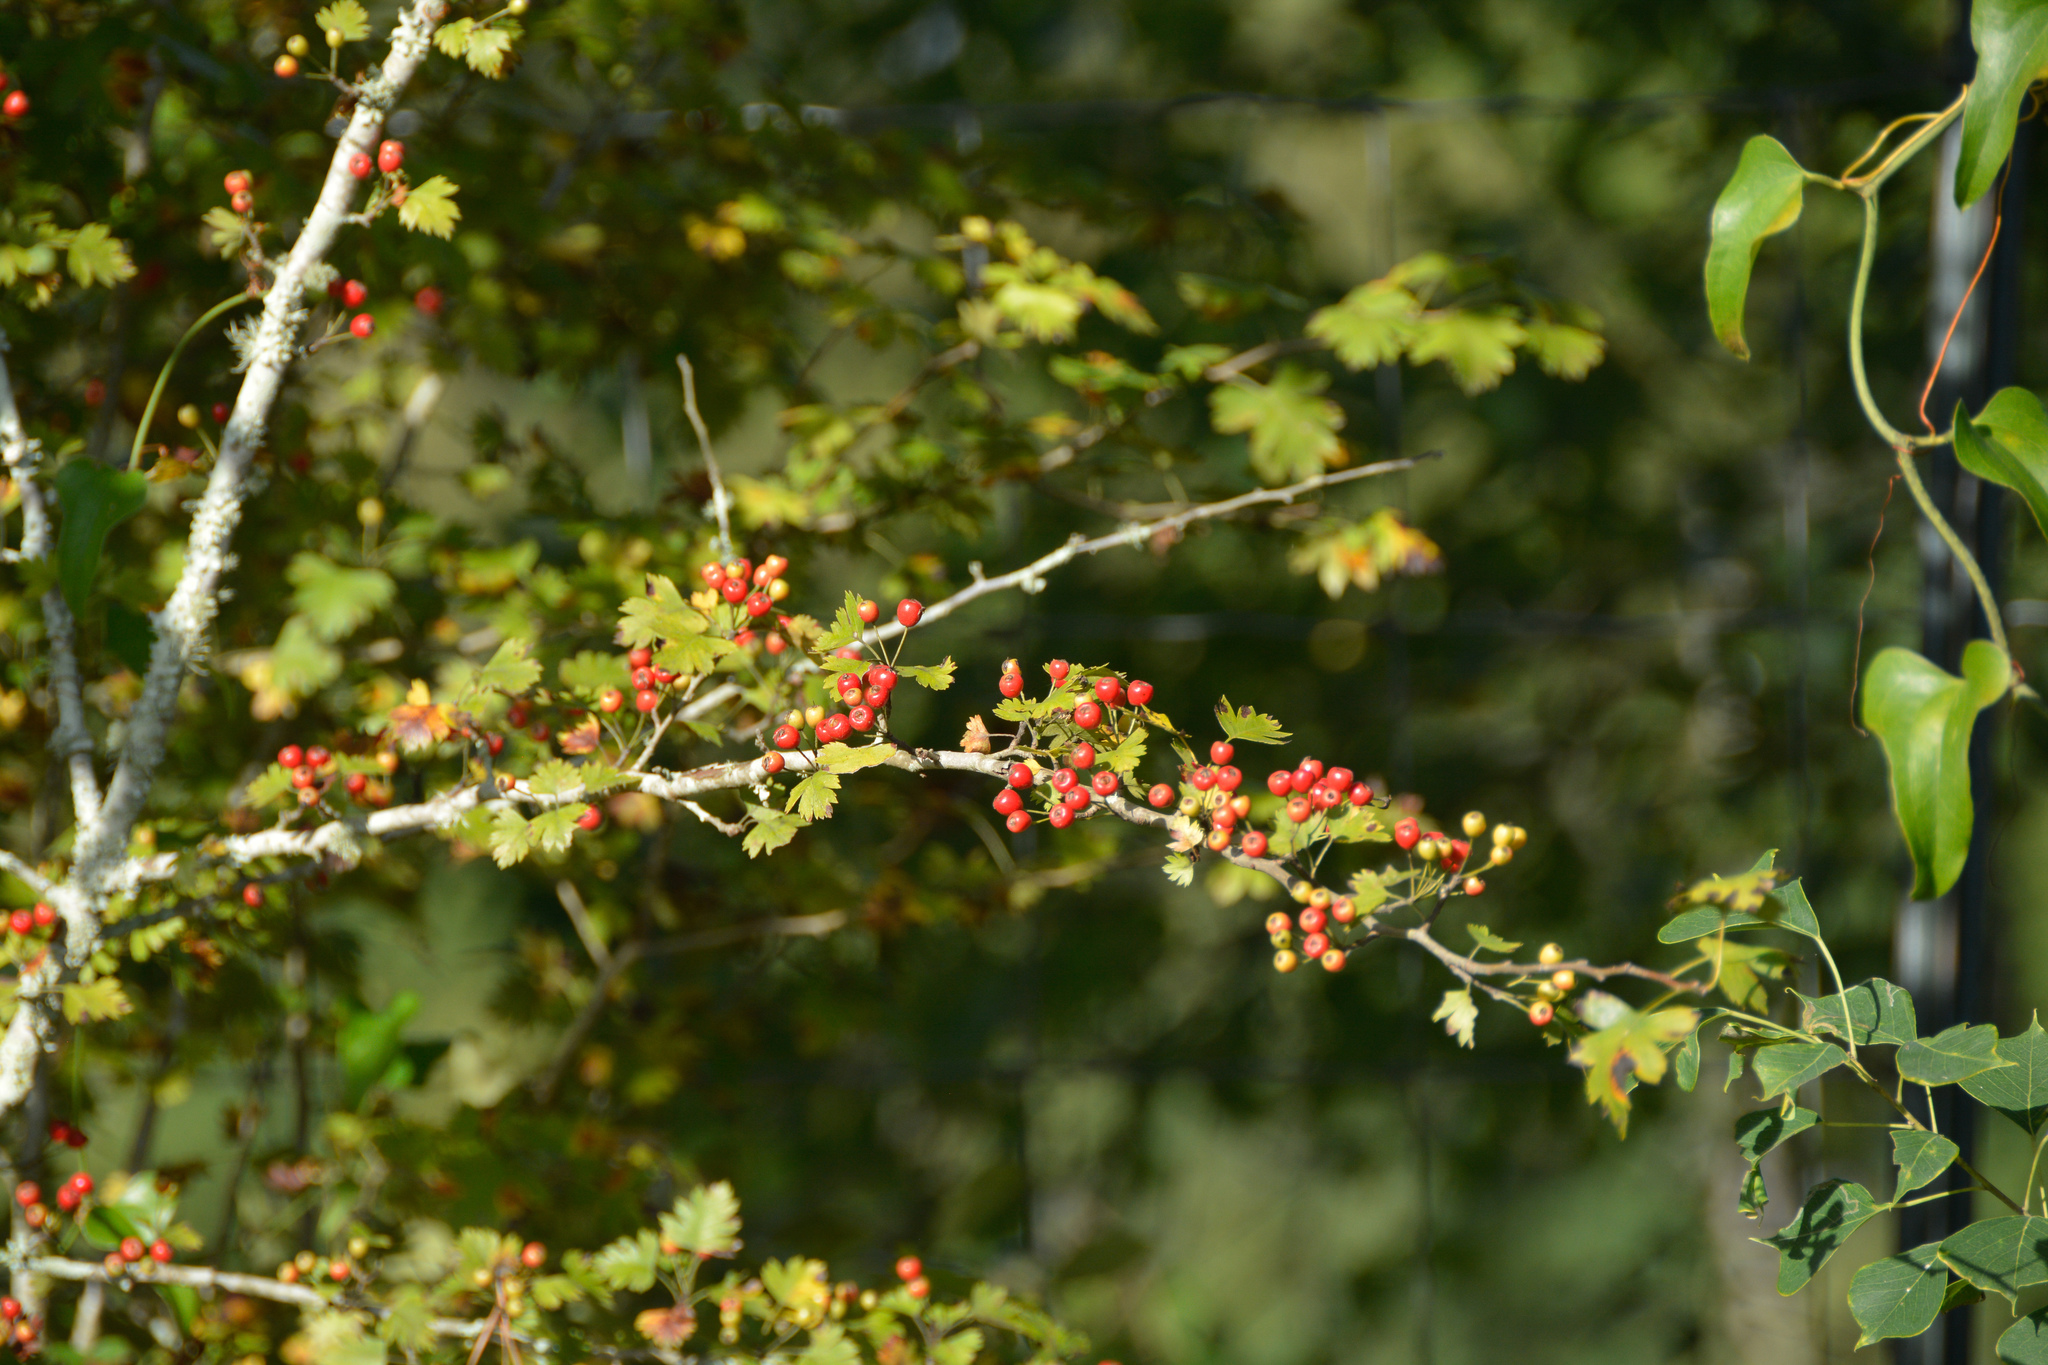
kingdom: Plantae
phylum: Tracheophyta
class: Magnoliopsida
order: Rosales
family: Rosaceae
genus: Crataegus
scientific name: Crataegus marshallii
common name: Parsley-hawthorn
